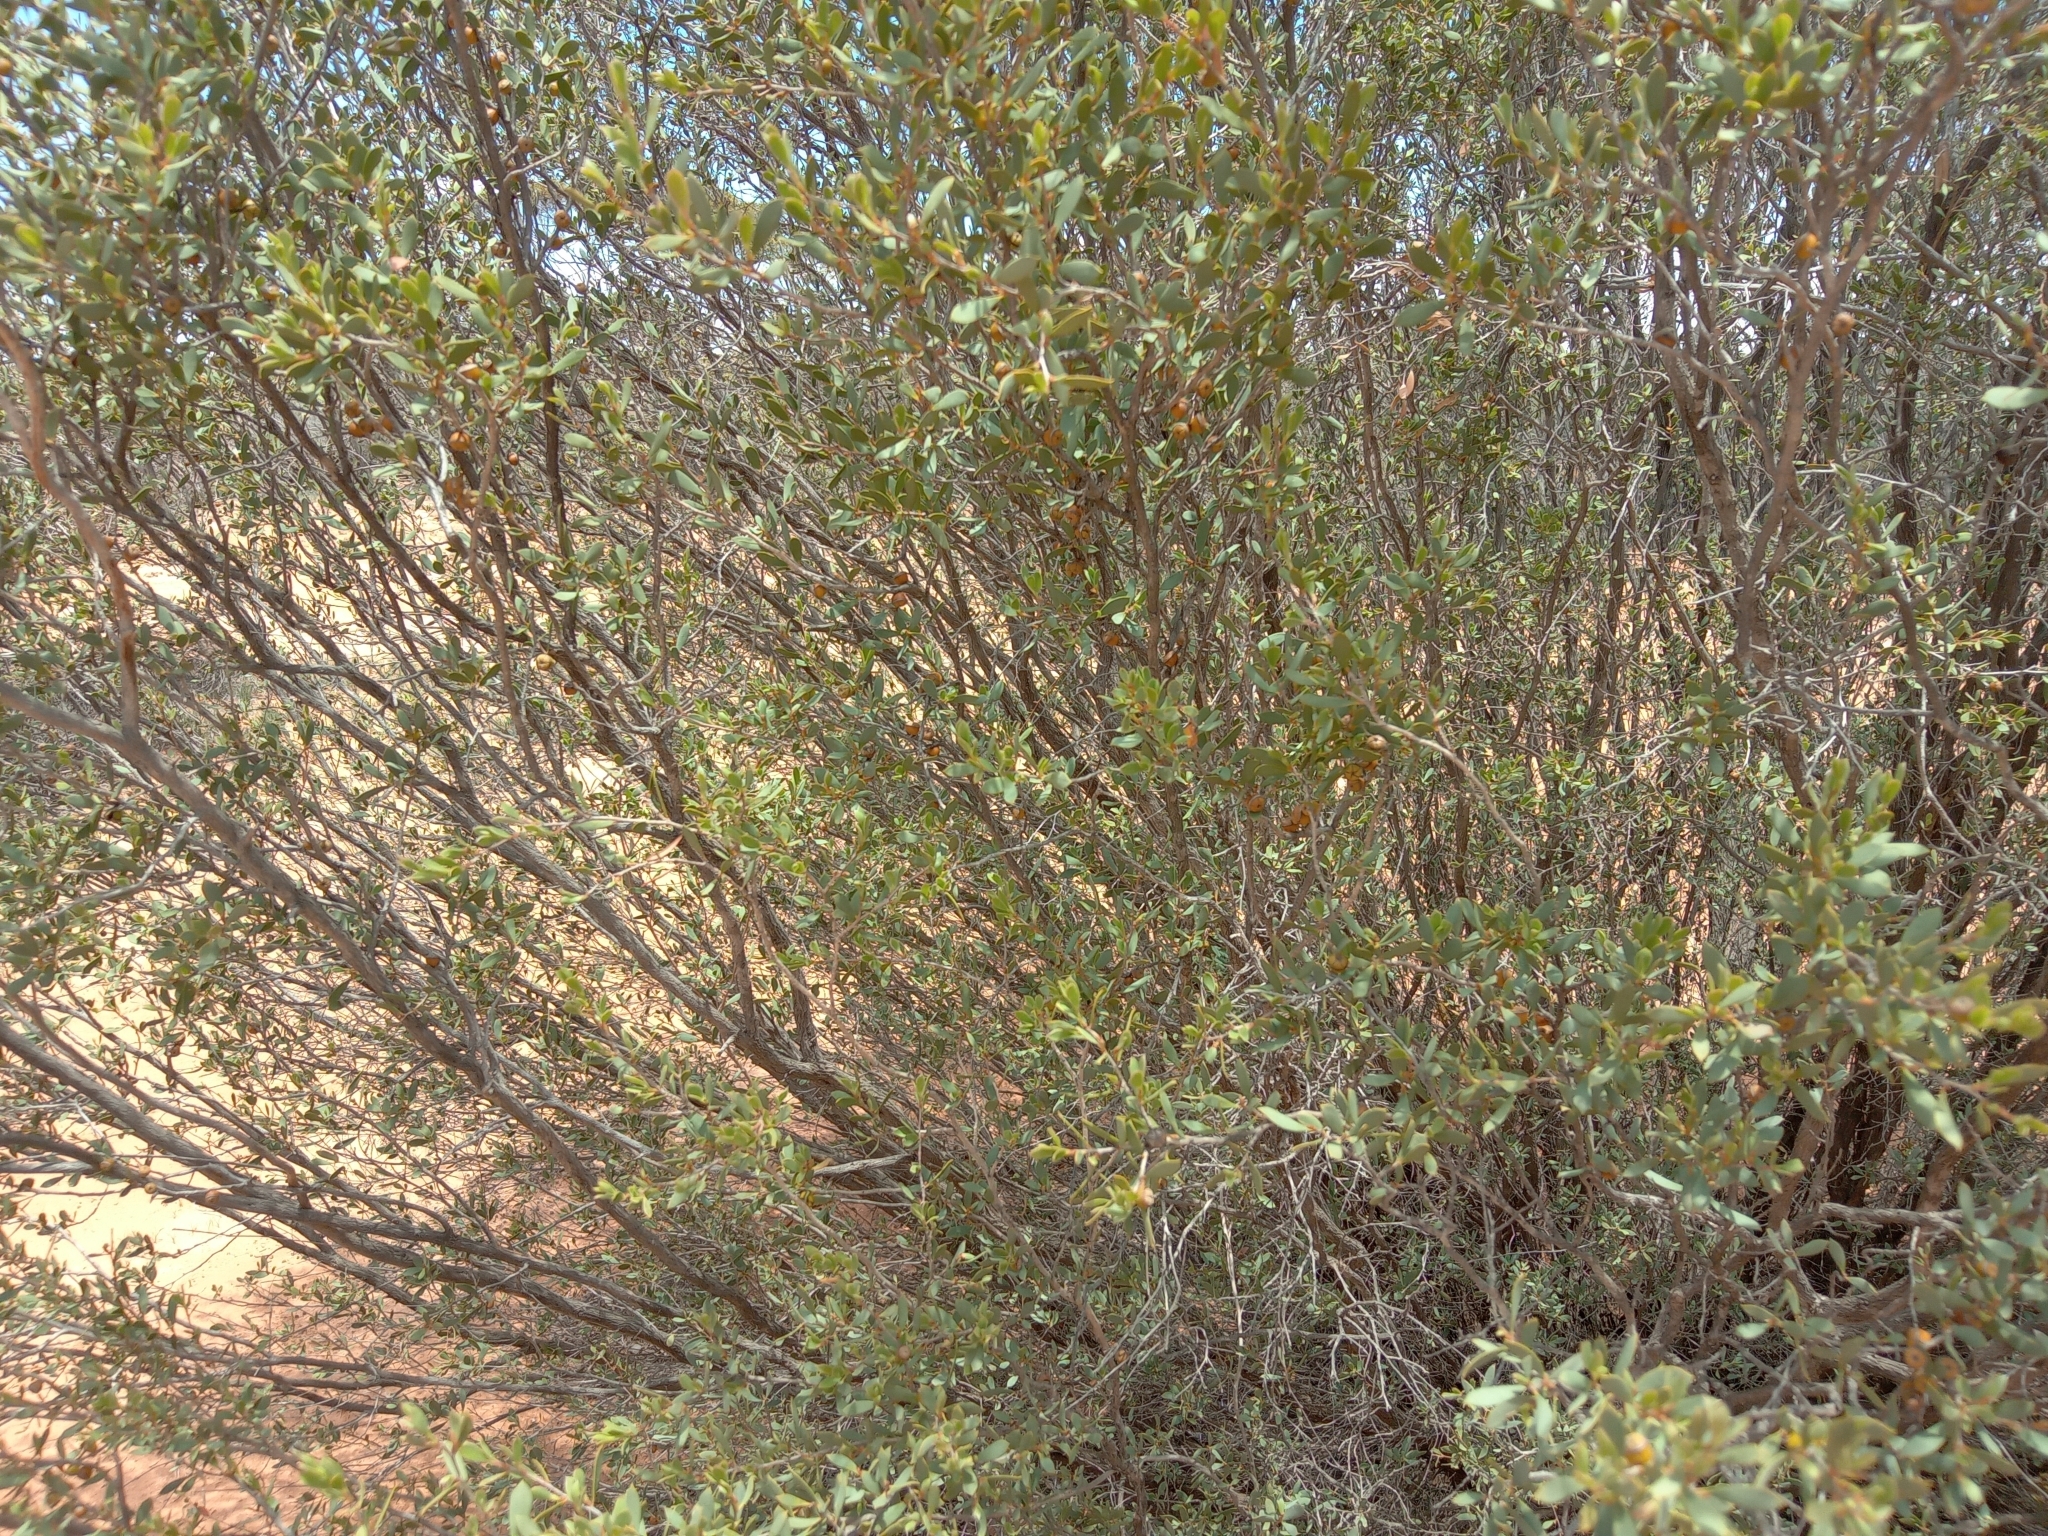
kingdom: Plantae
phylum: Tracheophyta
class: Magnoliopsida
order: Myrtales
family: Myrtaceae
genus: Leptospermum
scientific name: Leptospermum coriaceum
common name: Mallee teatree
